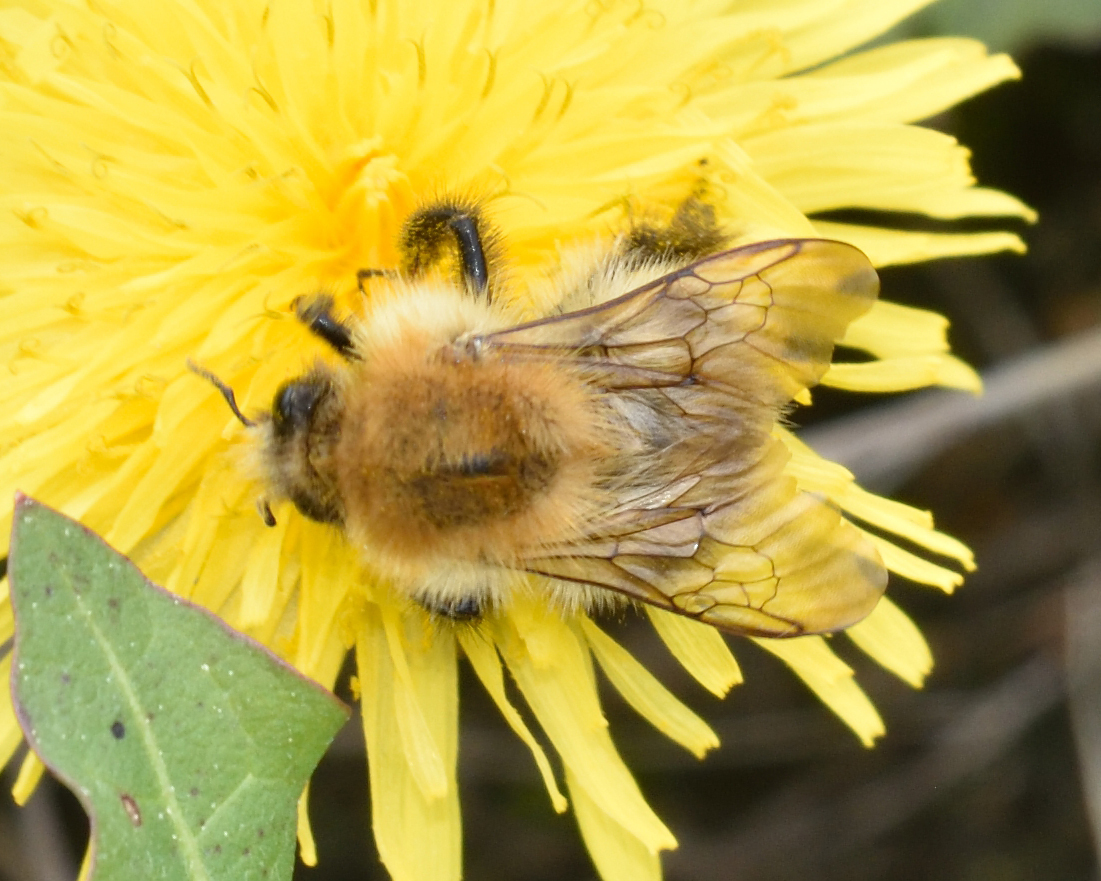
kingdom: Animalia
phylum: Arthropoda
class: Insecta
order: Hymenoptera
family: Apidae
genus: Bombus
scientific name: Bombus pascuorum
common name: Common carder bee
